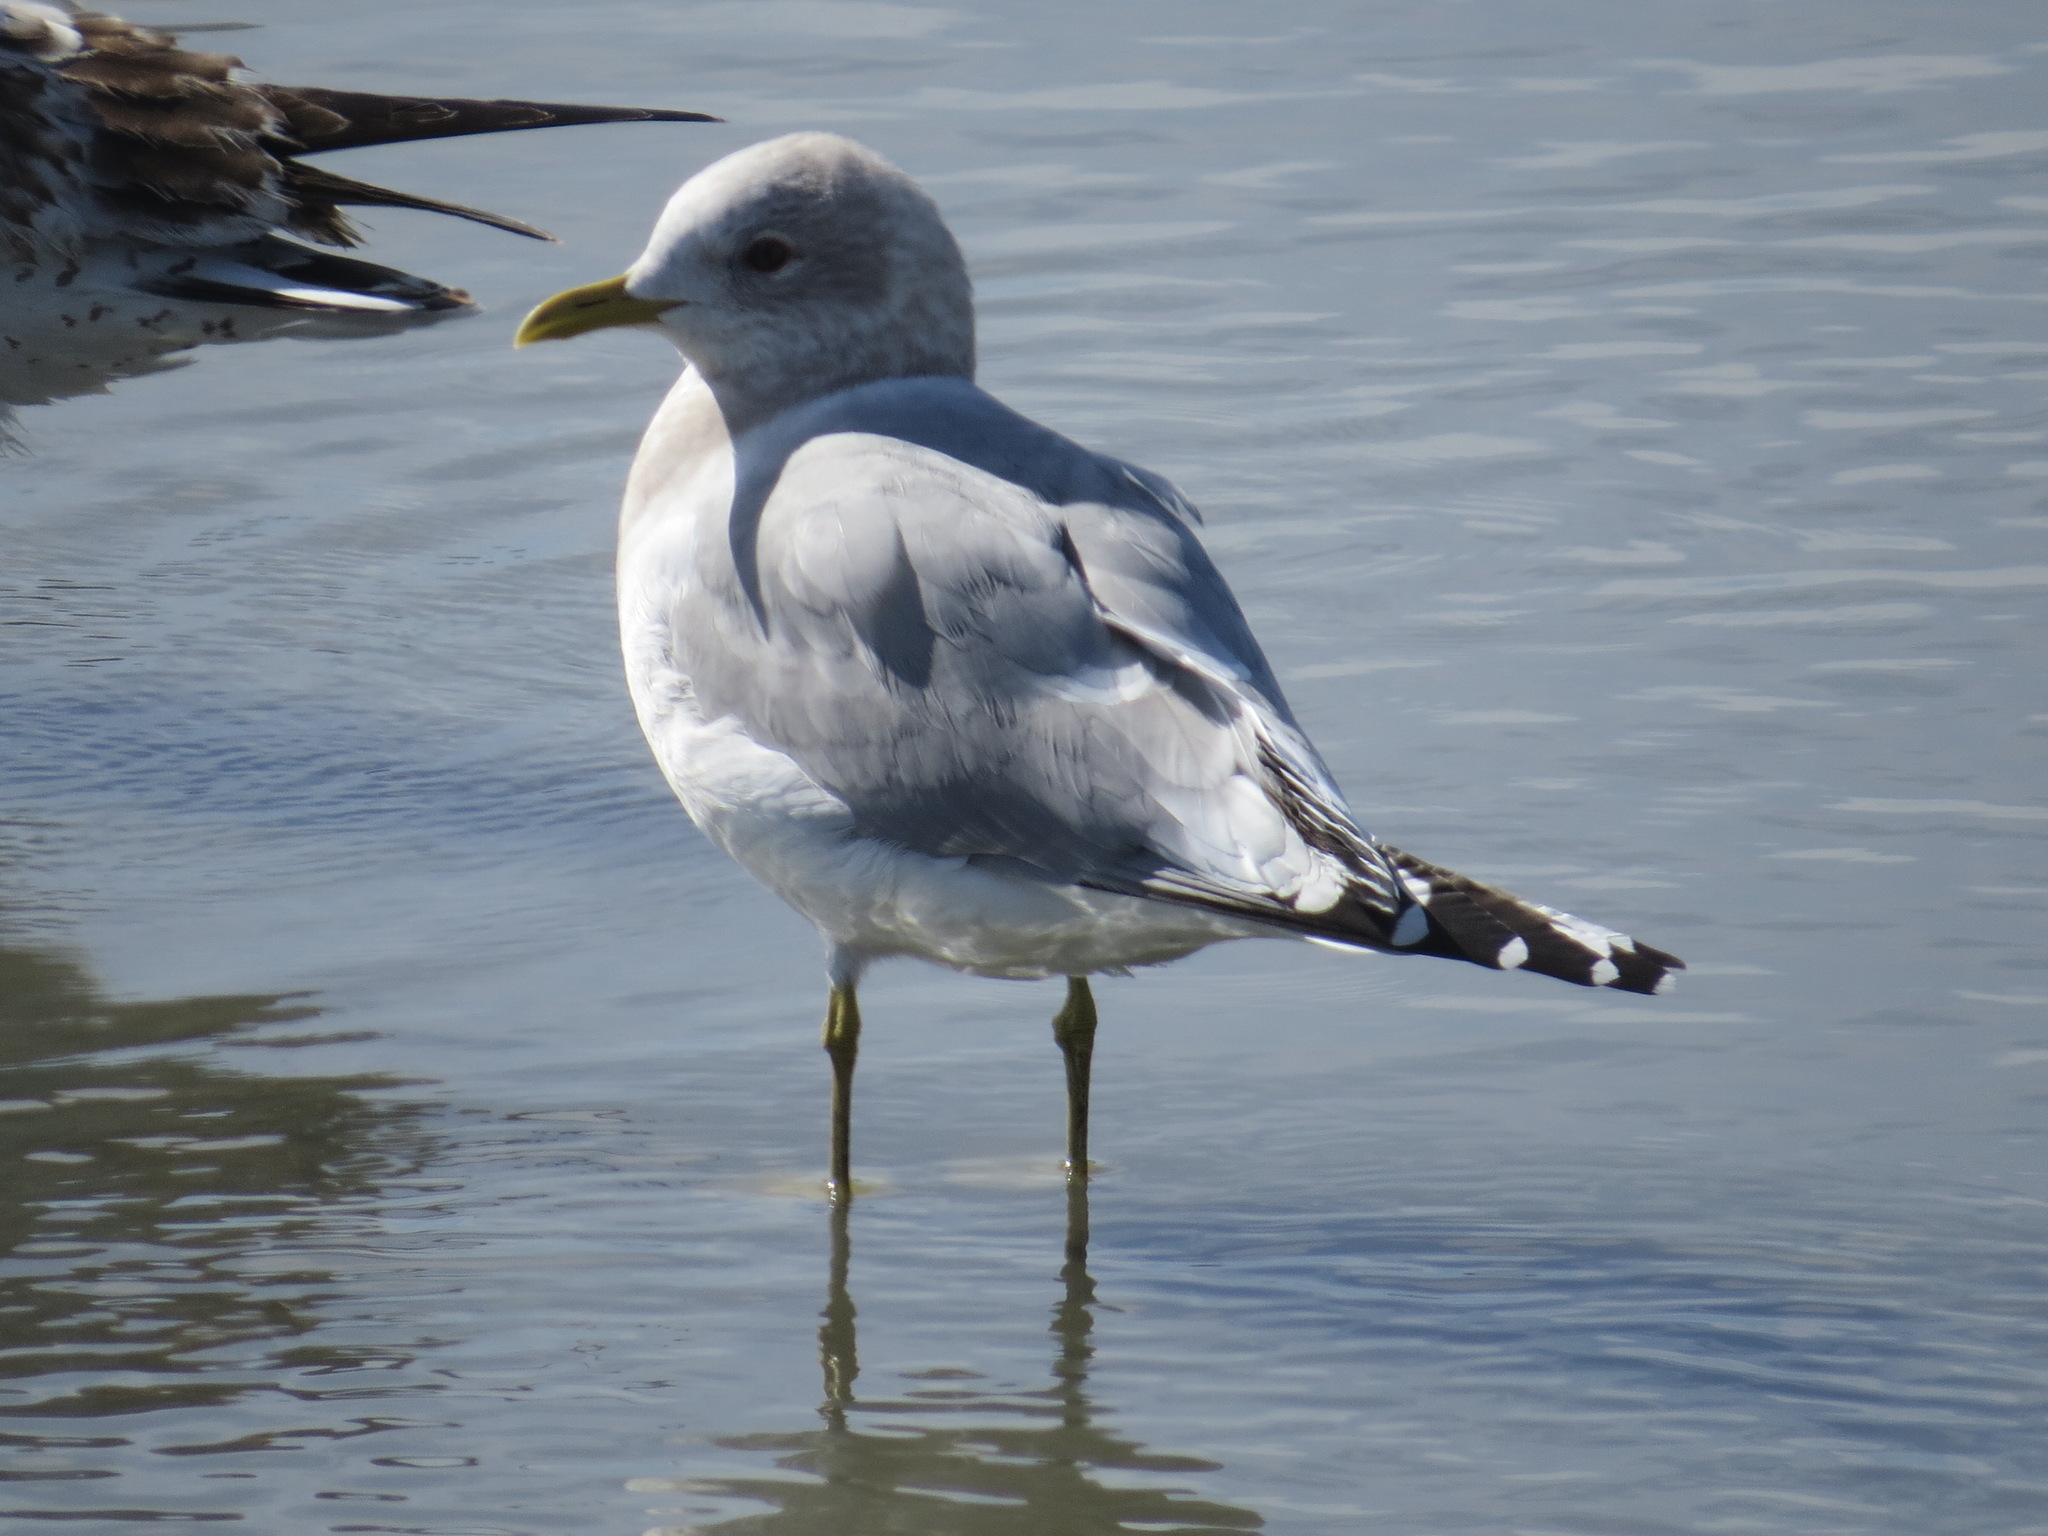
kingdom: Animalia
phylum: Chordata
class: Aves
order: Charadriiformes
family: Laridae
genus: Larus
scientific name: Larus brachyrhynchus
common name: Short-billed gull
